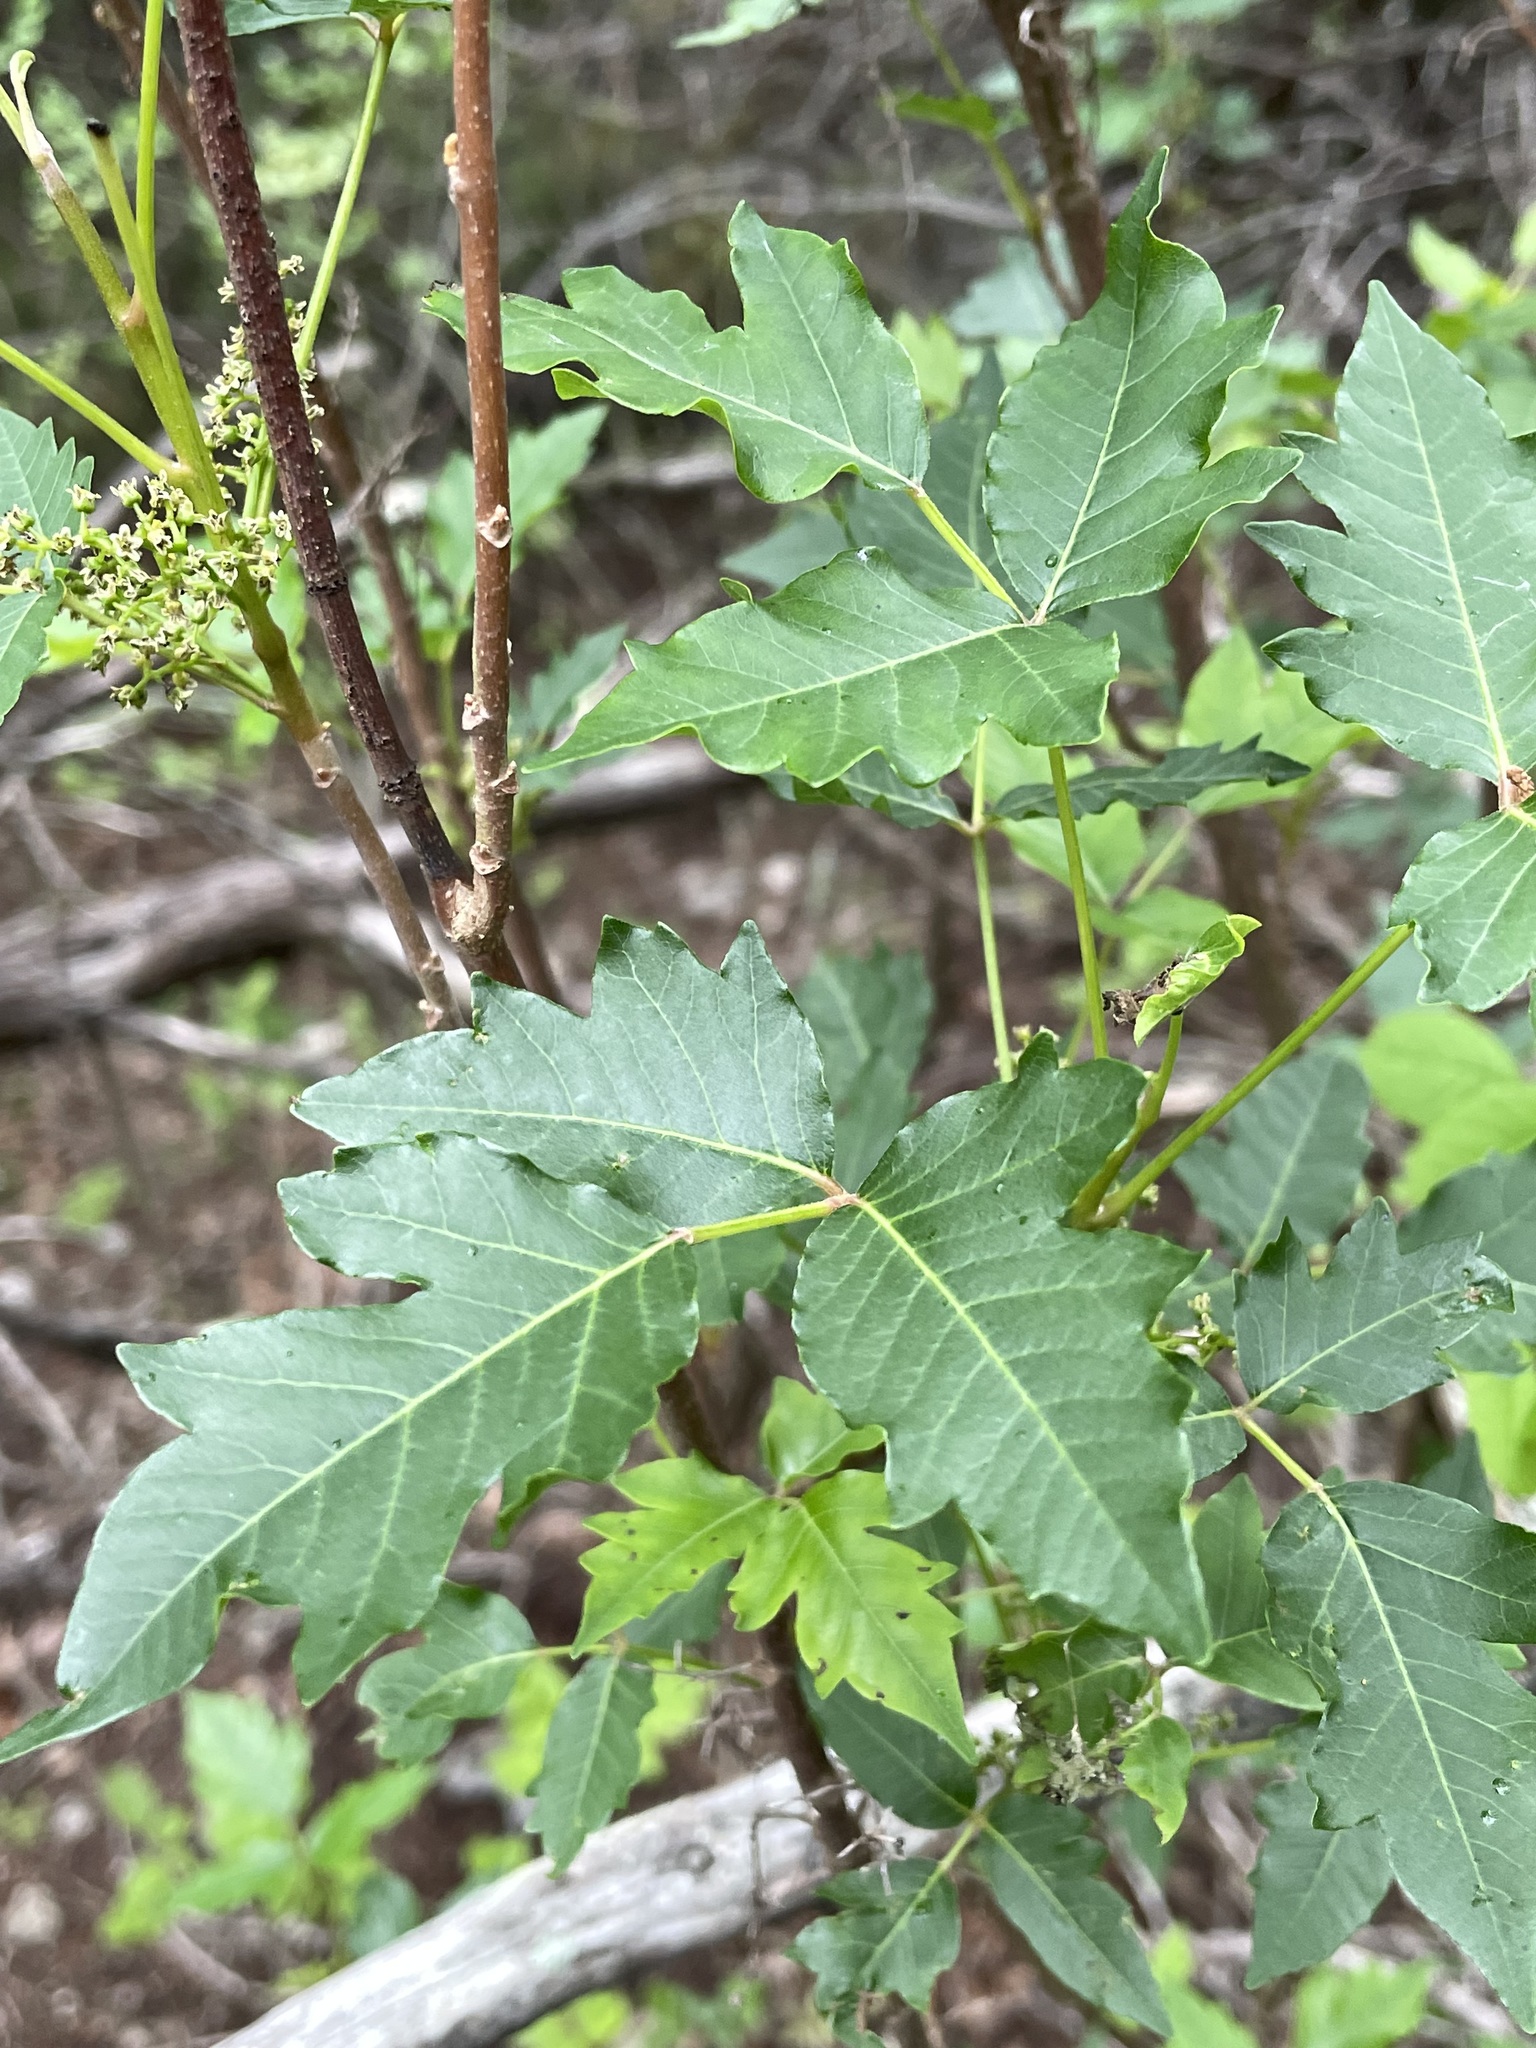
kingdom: Plantae
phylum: Tracheophyta
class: Magnoliopsida
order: Sapindales
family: Anacardiaceae
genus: Toxicodendron
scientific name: Toxicodendron radicans
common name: Poison ivy
